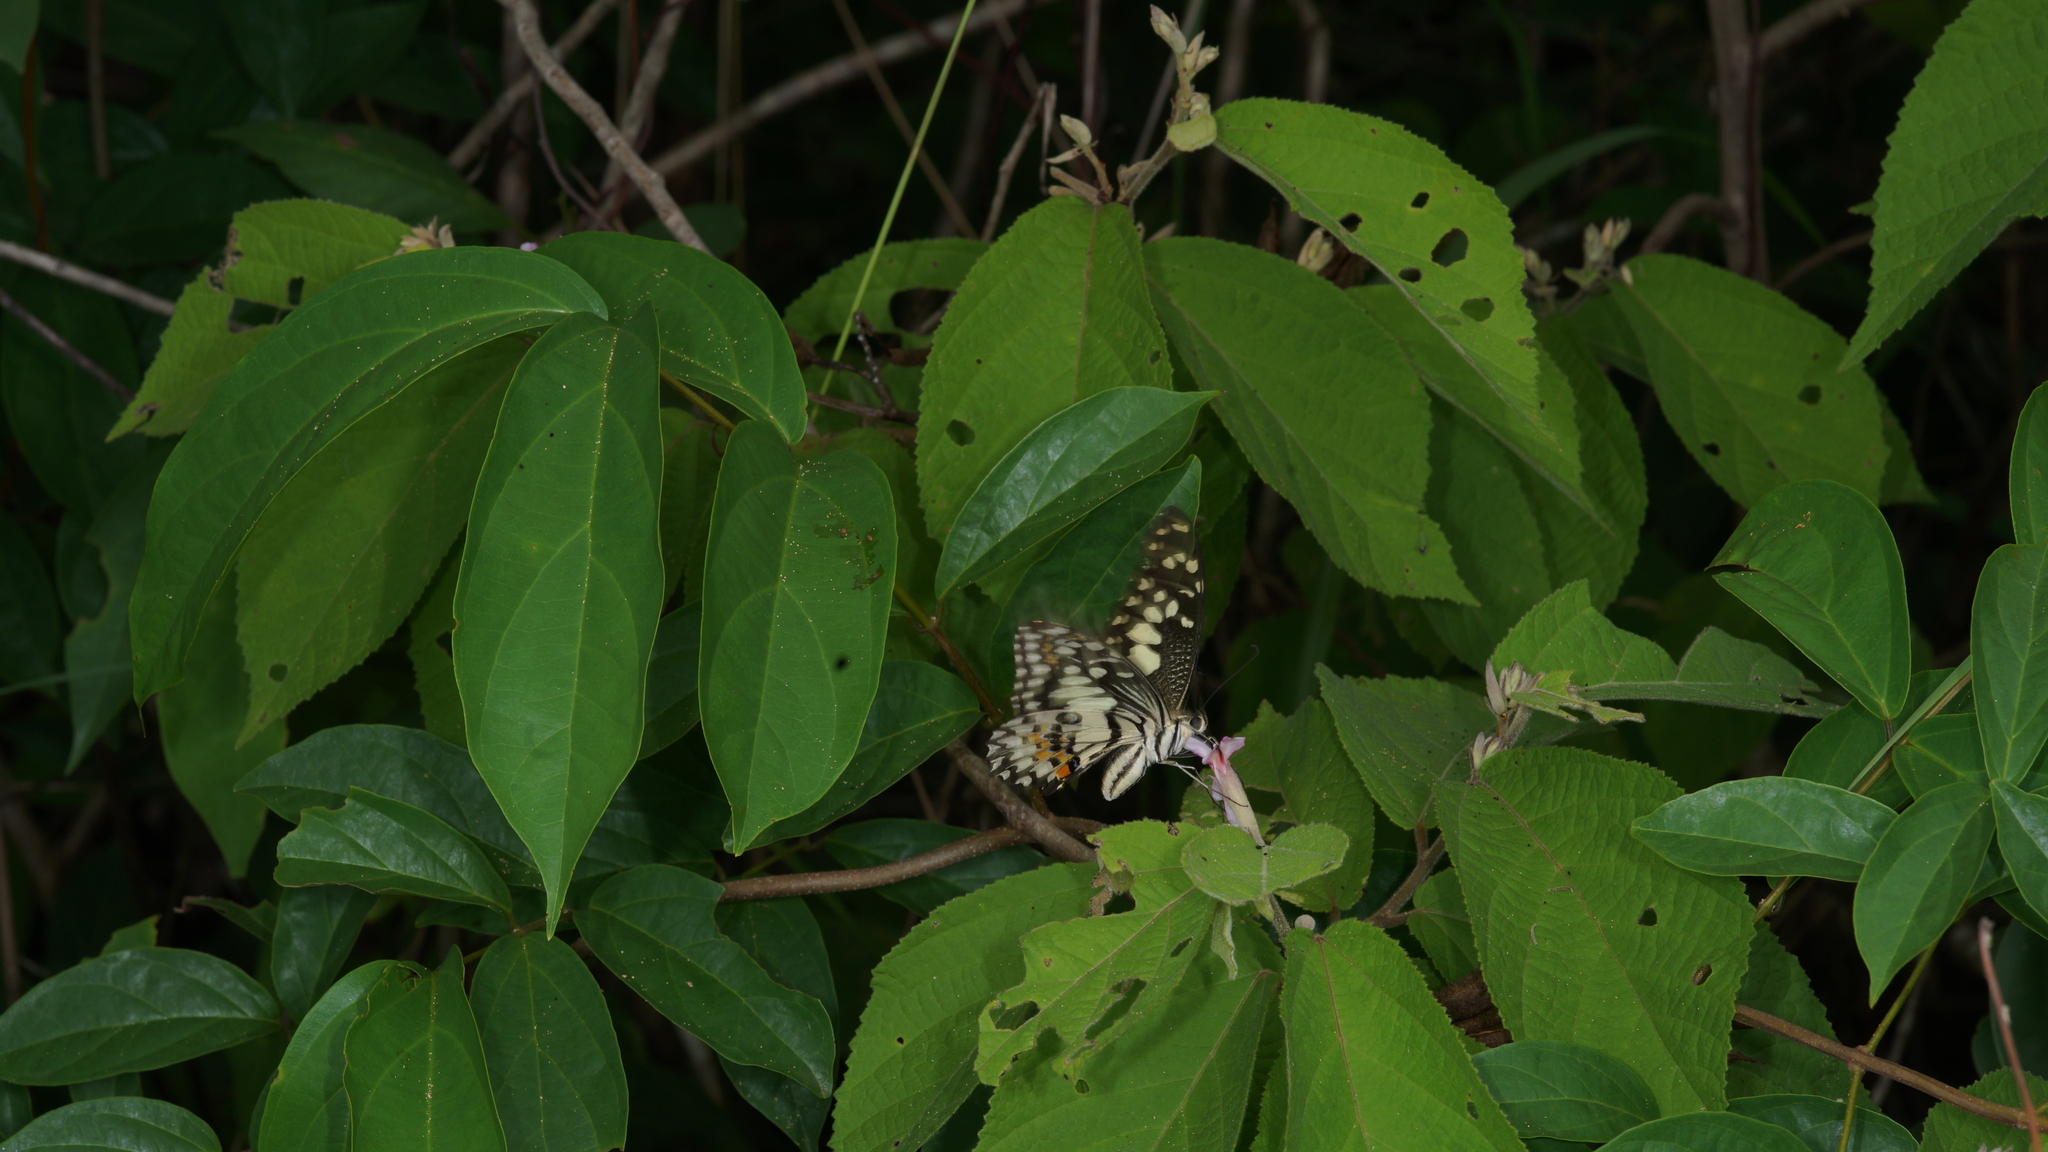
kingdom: Animalia
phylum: Arthropoda
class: Insecta
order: Lepidoptera
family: Papilionidae
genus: Papilio
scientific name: Papilio demoleus
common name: Lime butterfly
